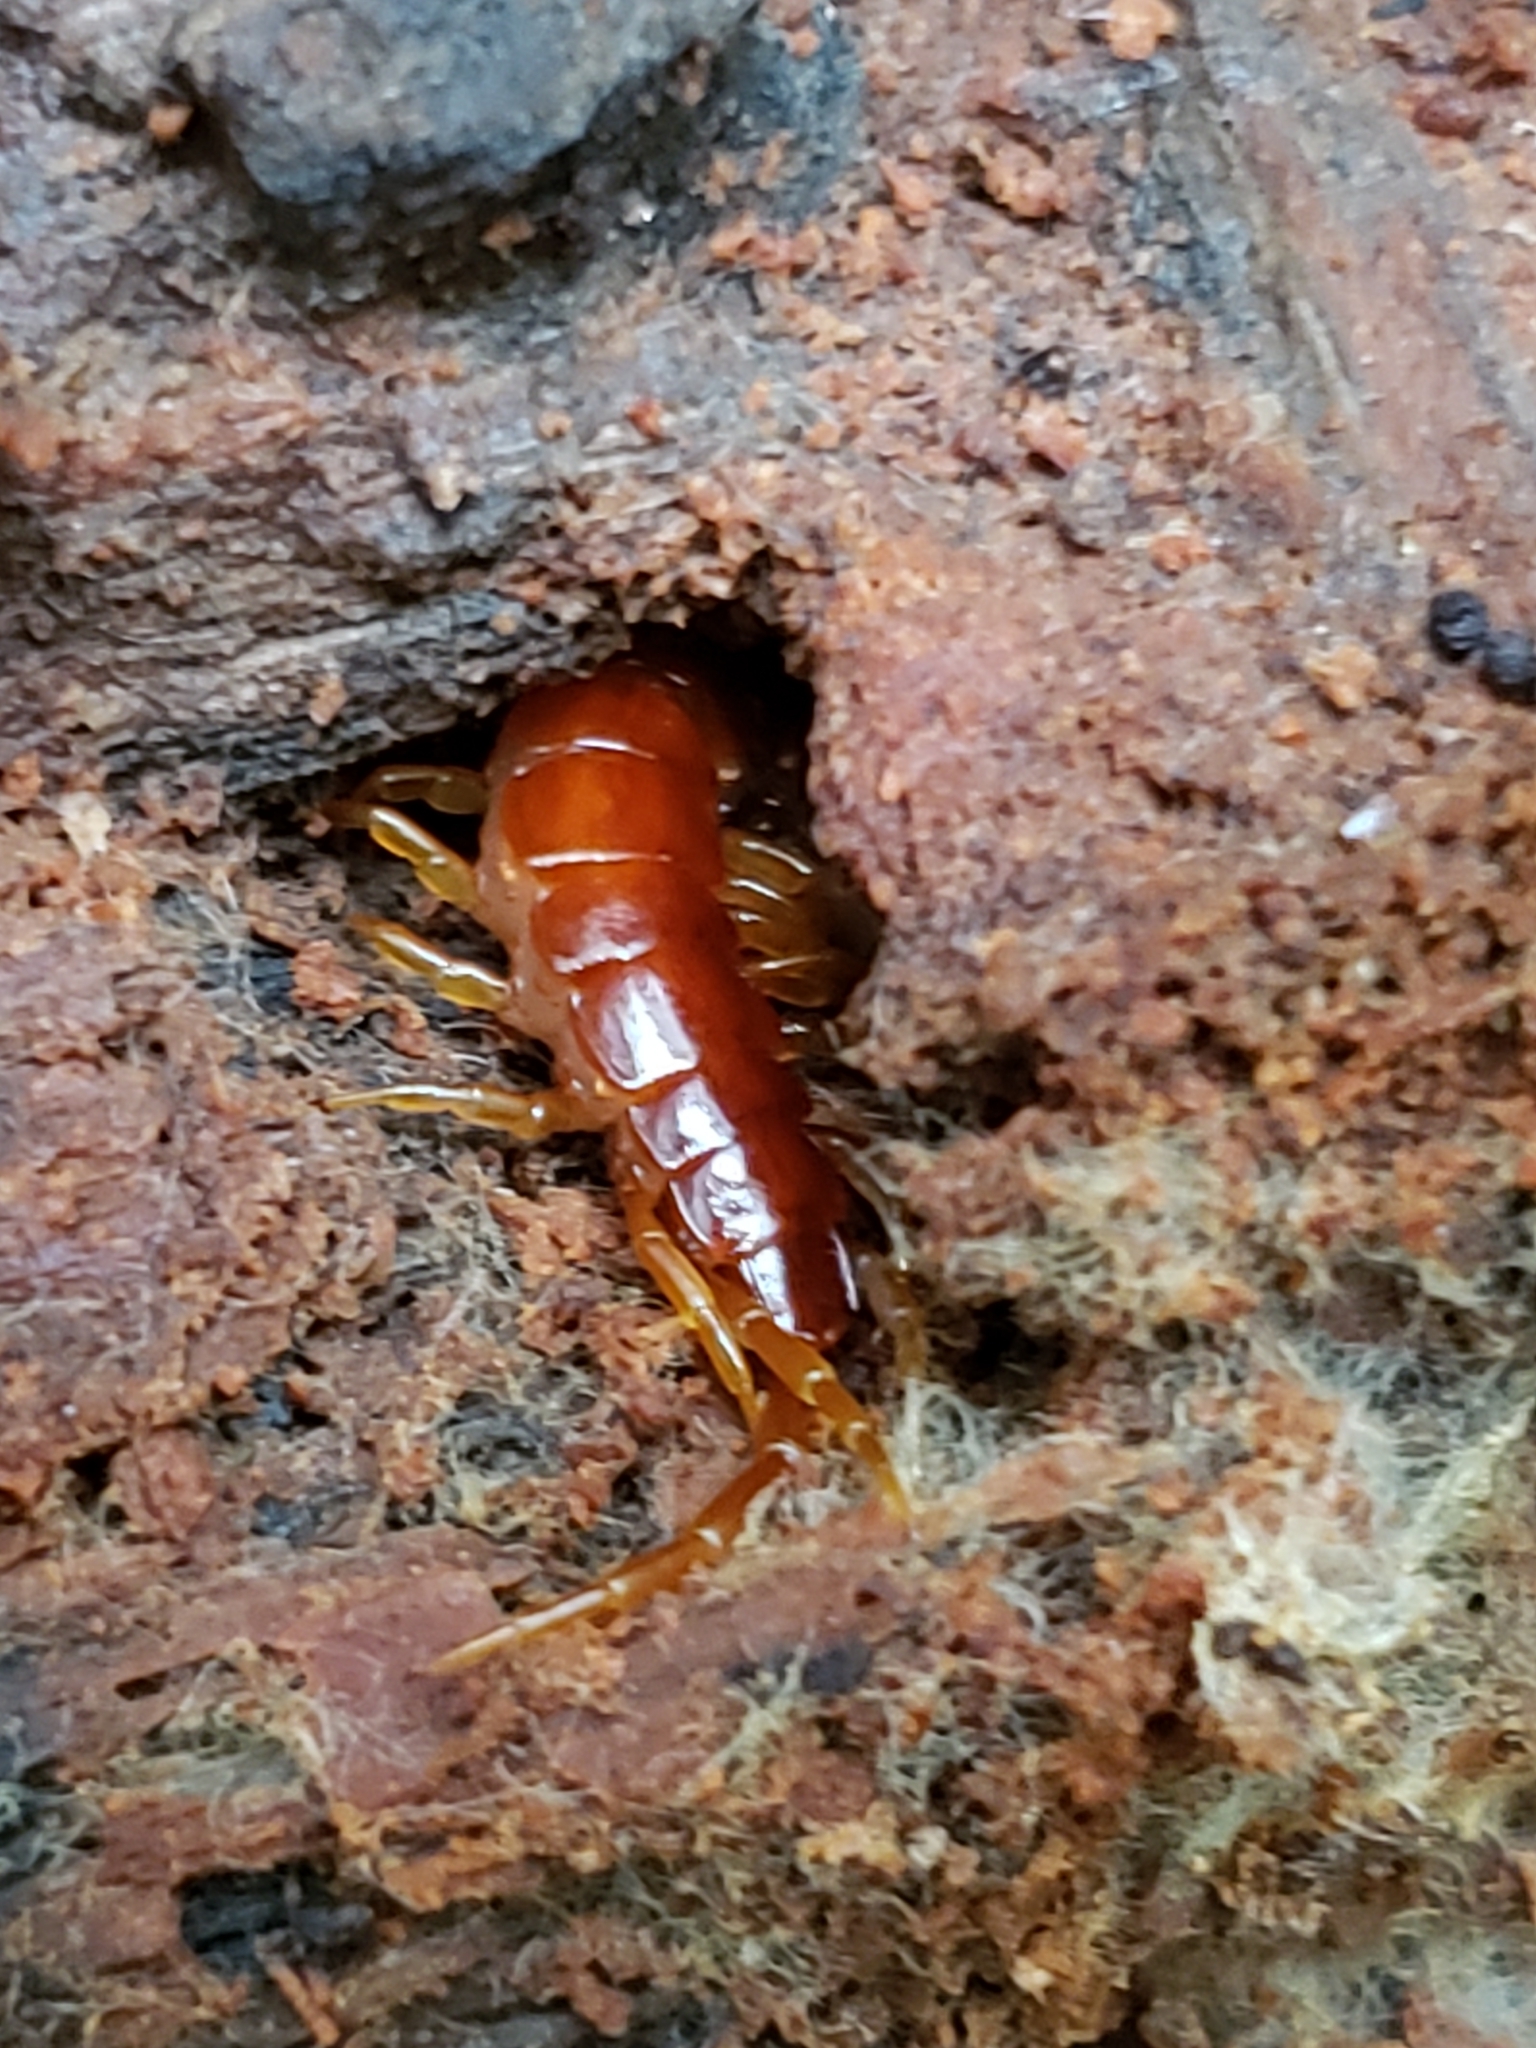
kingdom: Animalia
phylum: Arthropoda
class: Chilopoda
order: Scolopendromorpha
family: Scolopocryptopidae
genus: Scolopocryptops
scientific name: Scolopocryptops sexspinosus
